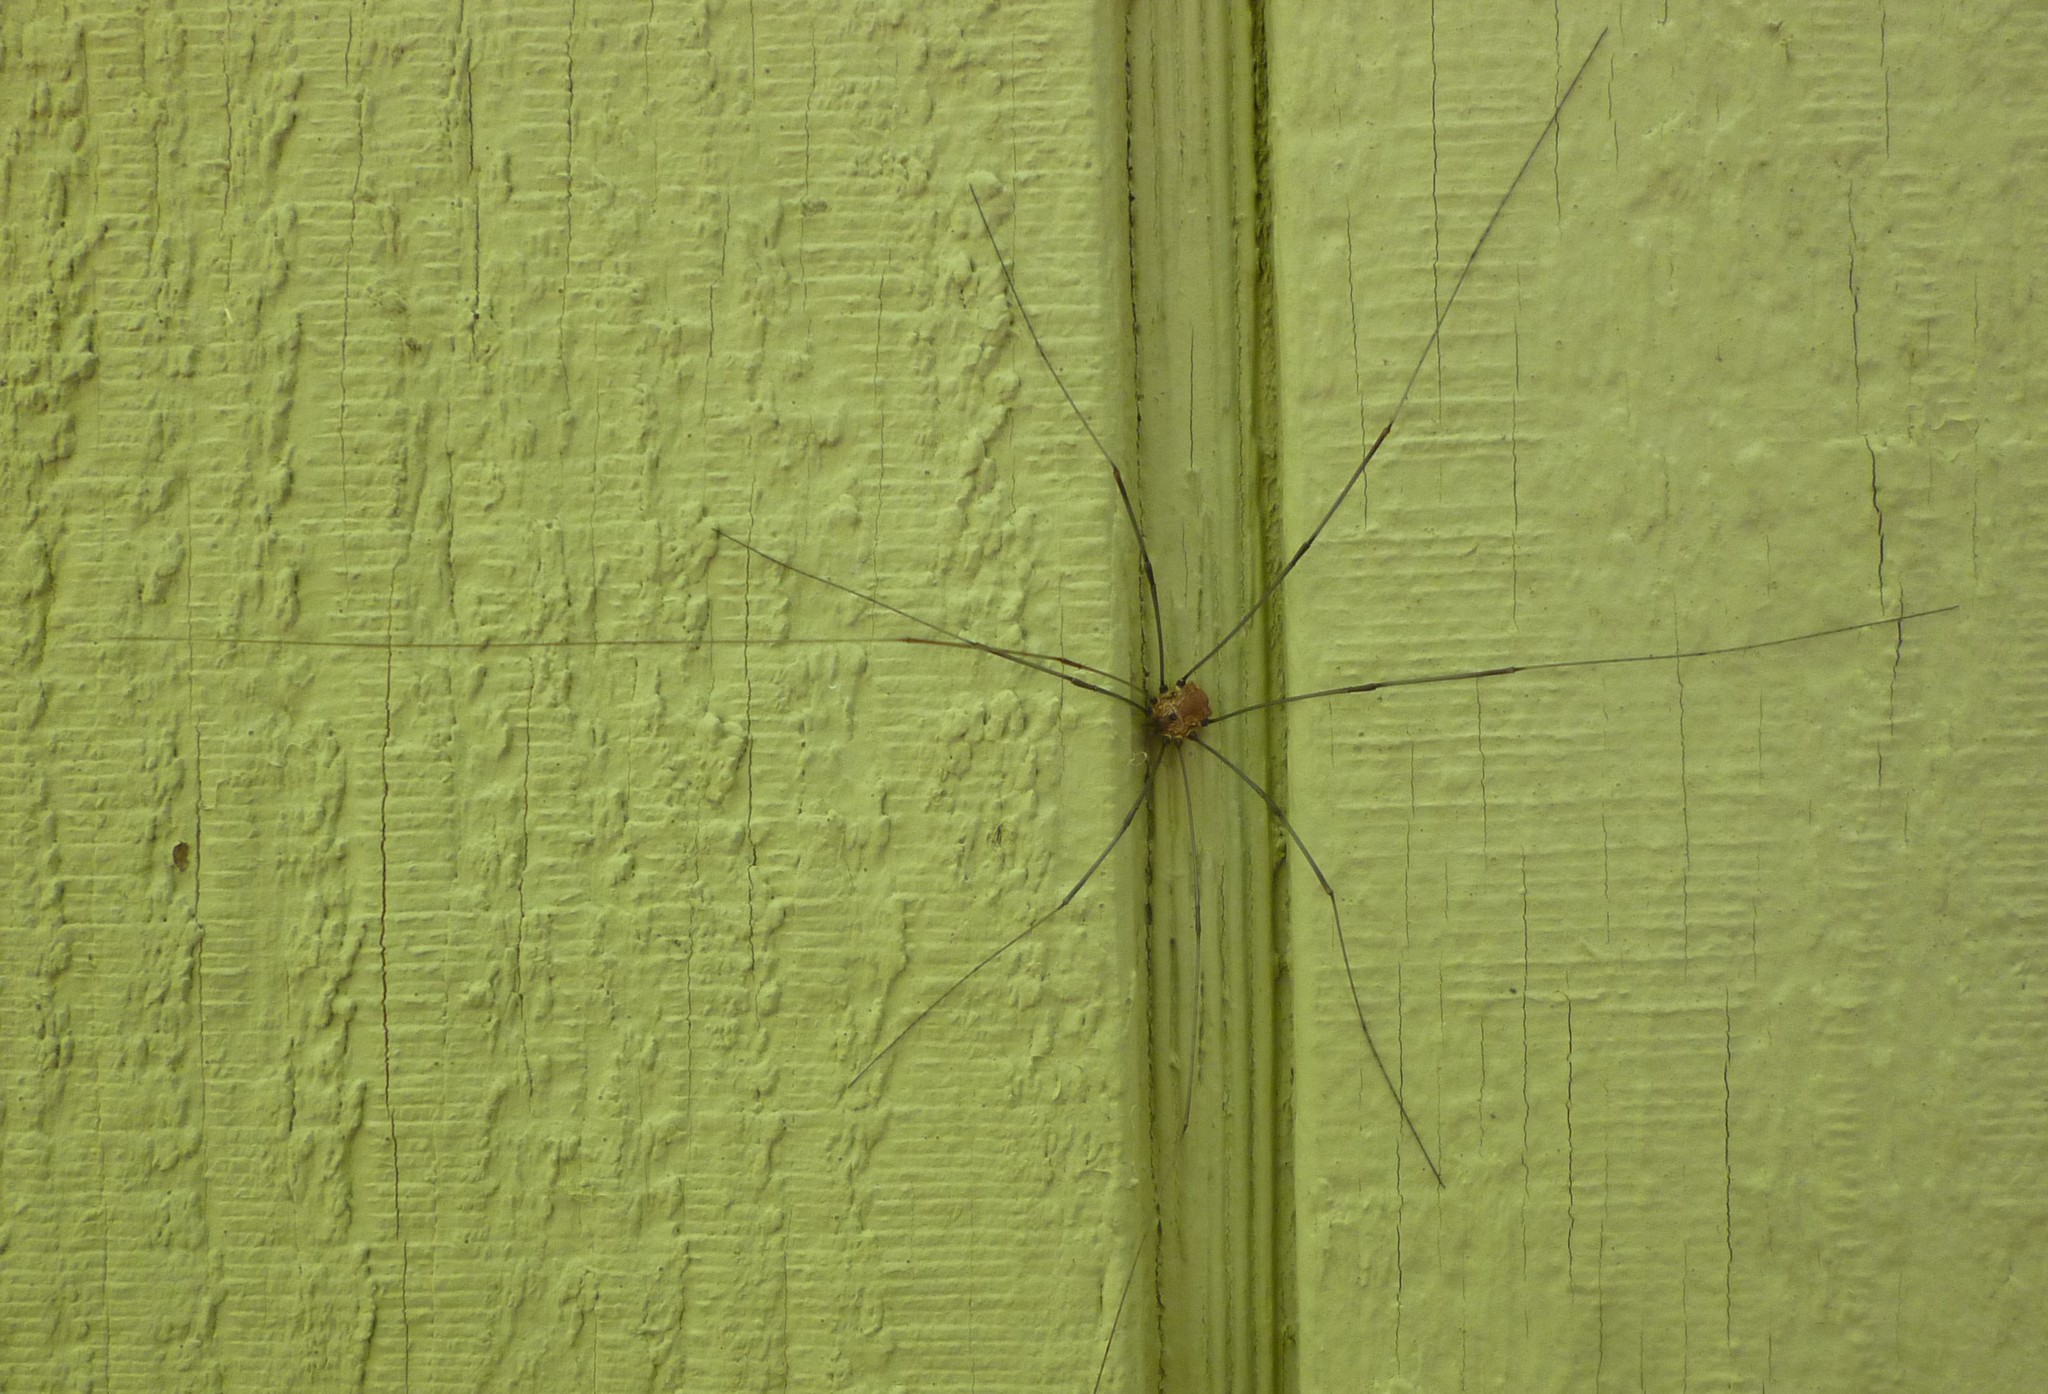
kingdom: Animalia
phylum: Arthropoda
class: Arachnida
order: Opiliones
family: Sclerosomatidae
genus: Leiobunum
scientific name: Leiobunum nigropalpi
